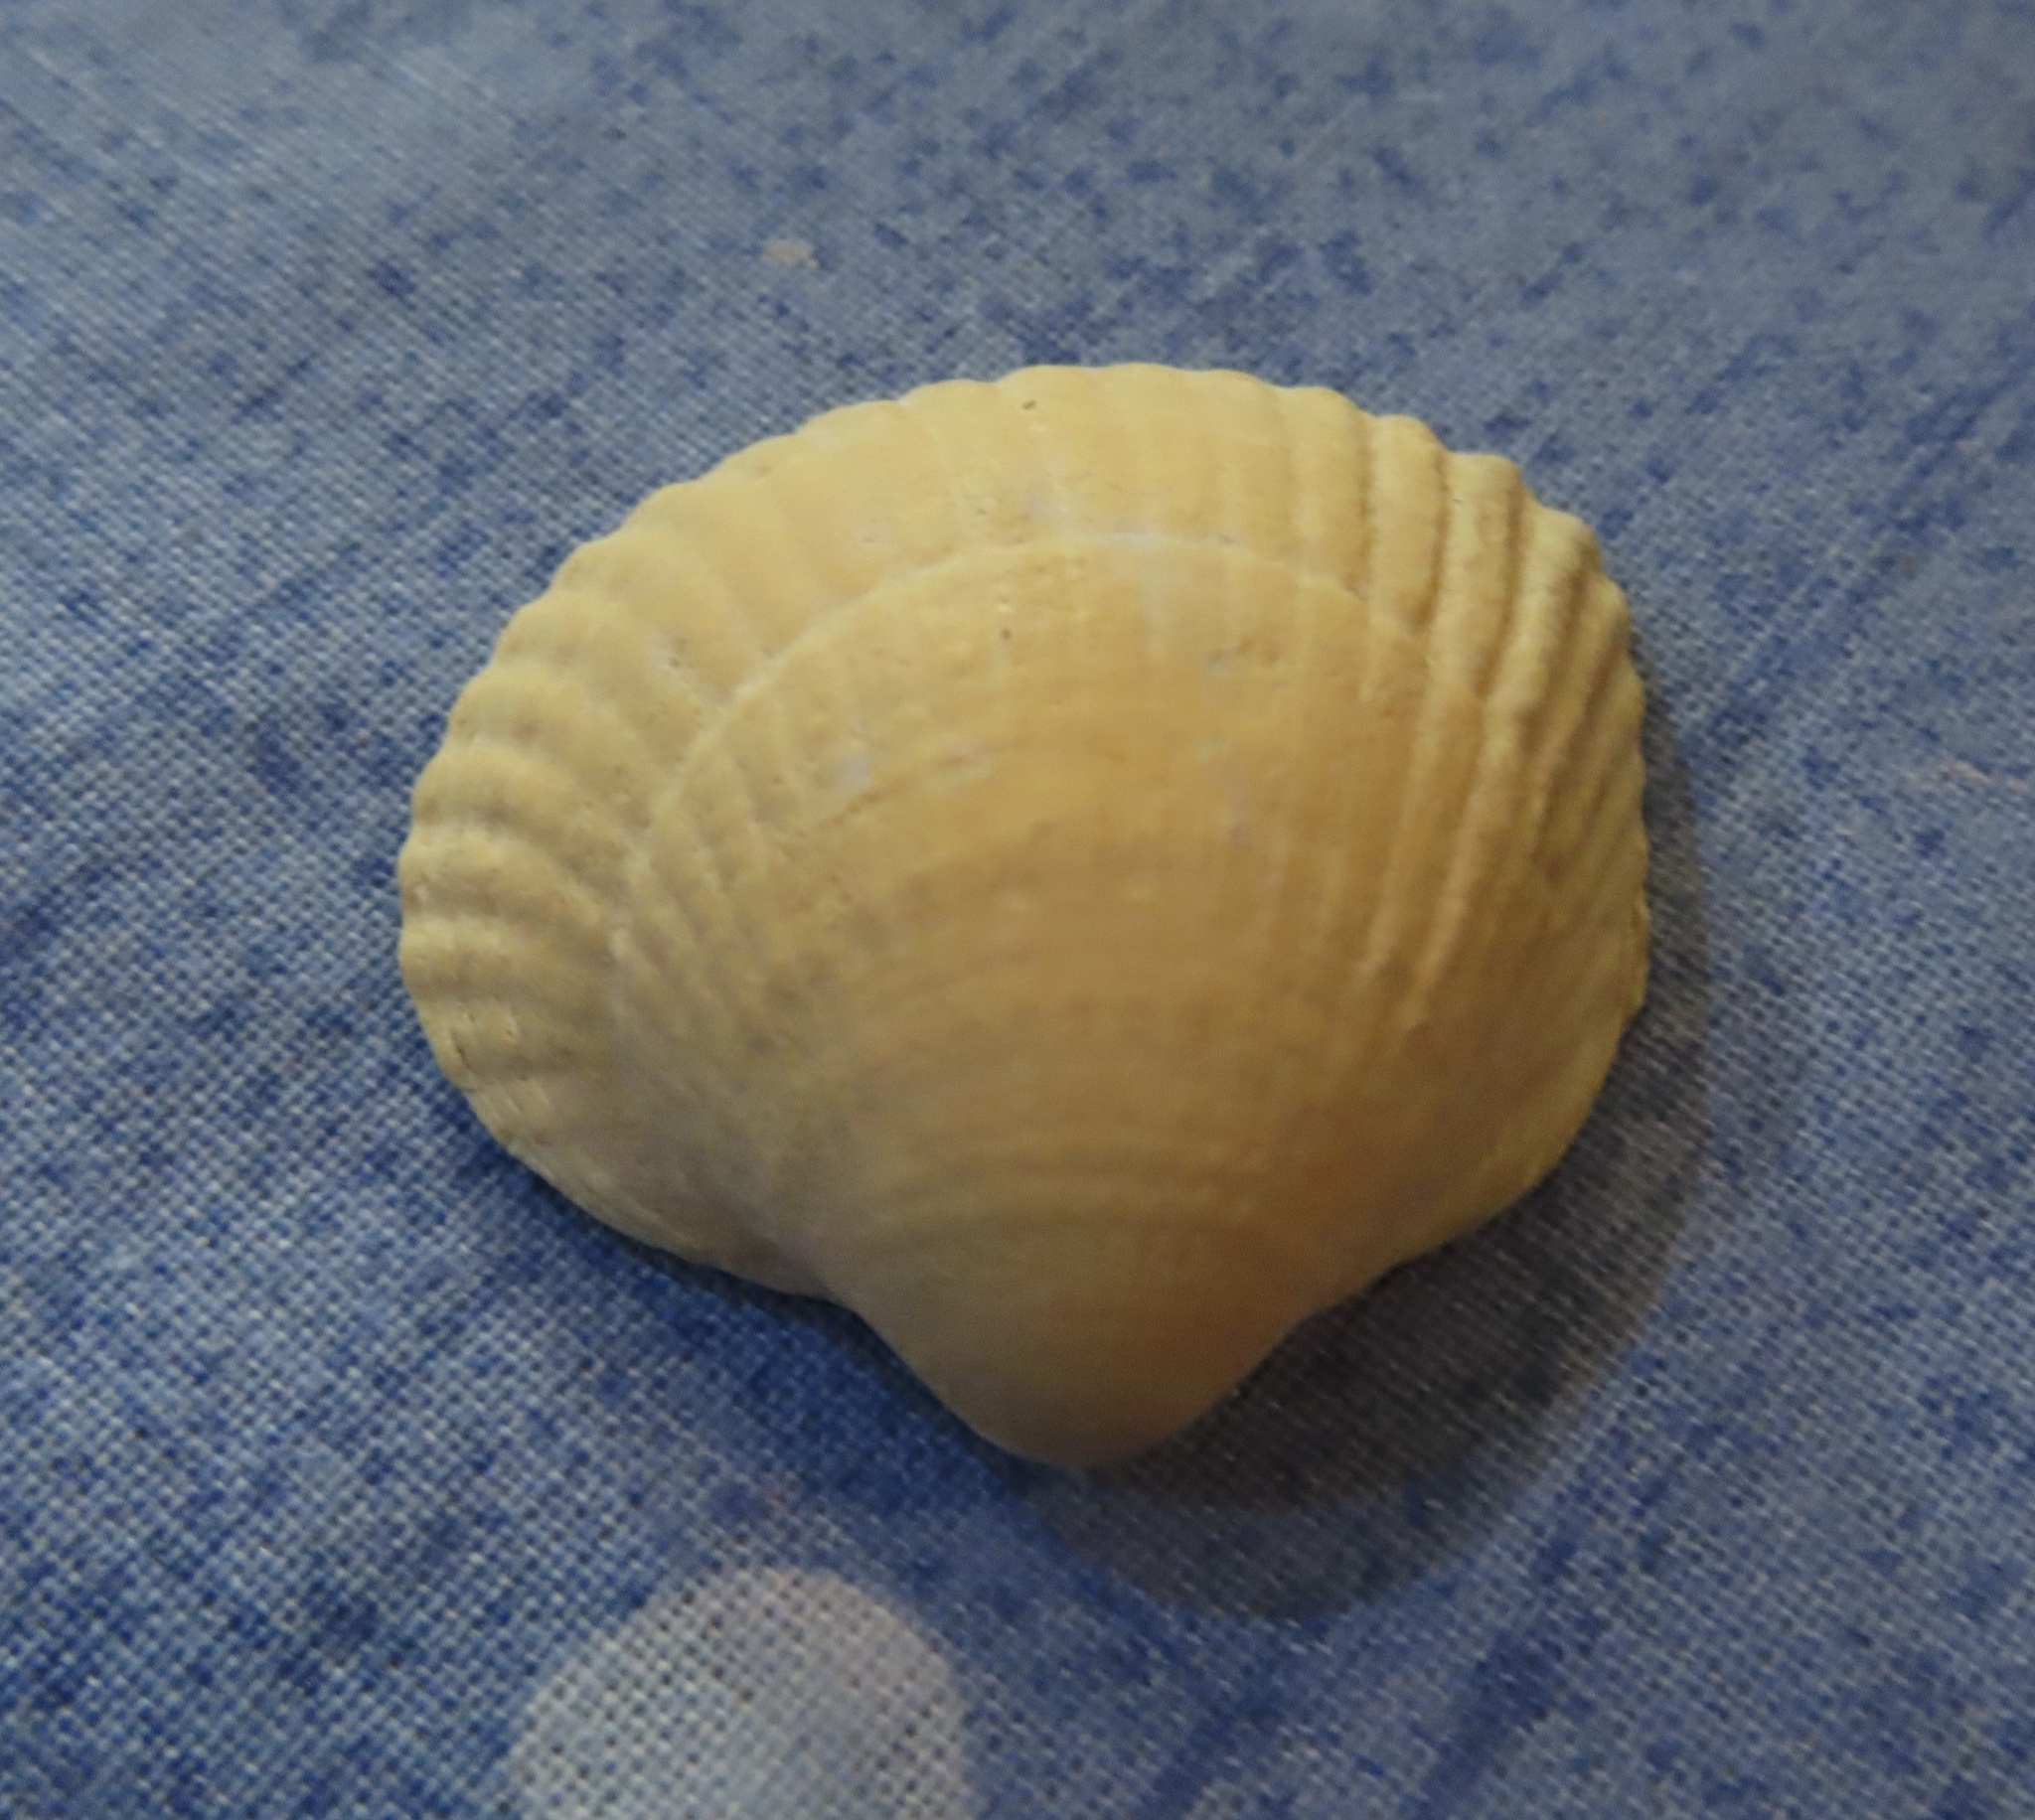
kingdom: Animalia
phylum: Mollusca
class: Bivalvia
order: Cardiida
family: Cardiidae
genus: Cerastoderma
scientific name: Cerastoderma edule
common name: Common cockle
